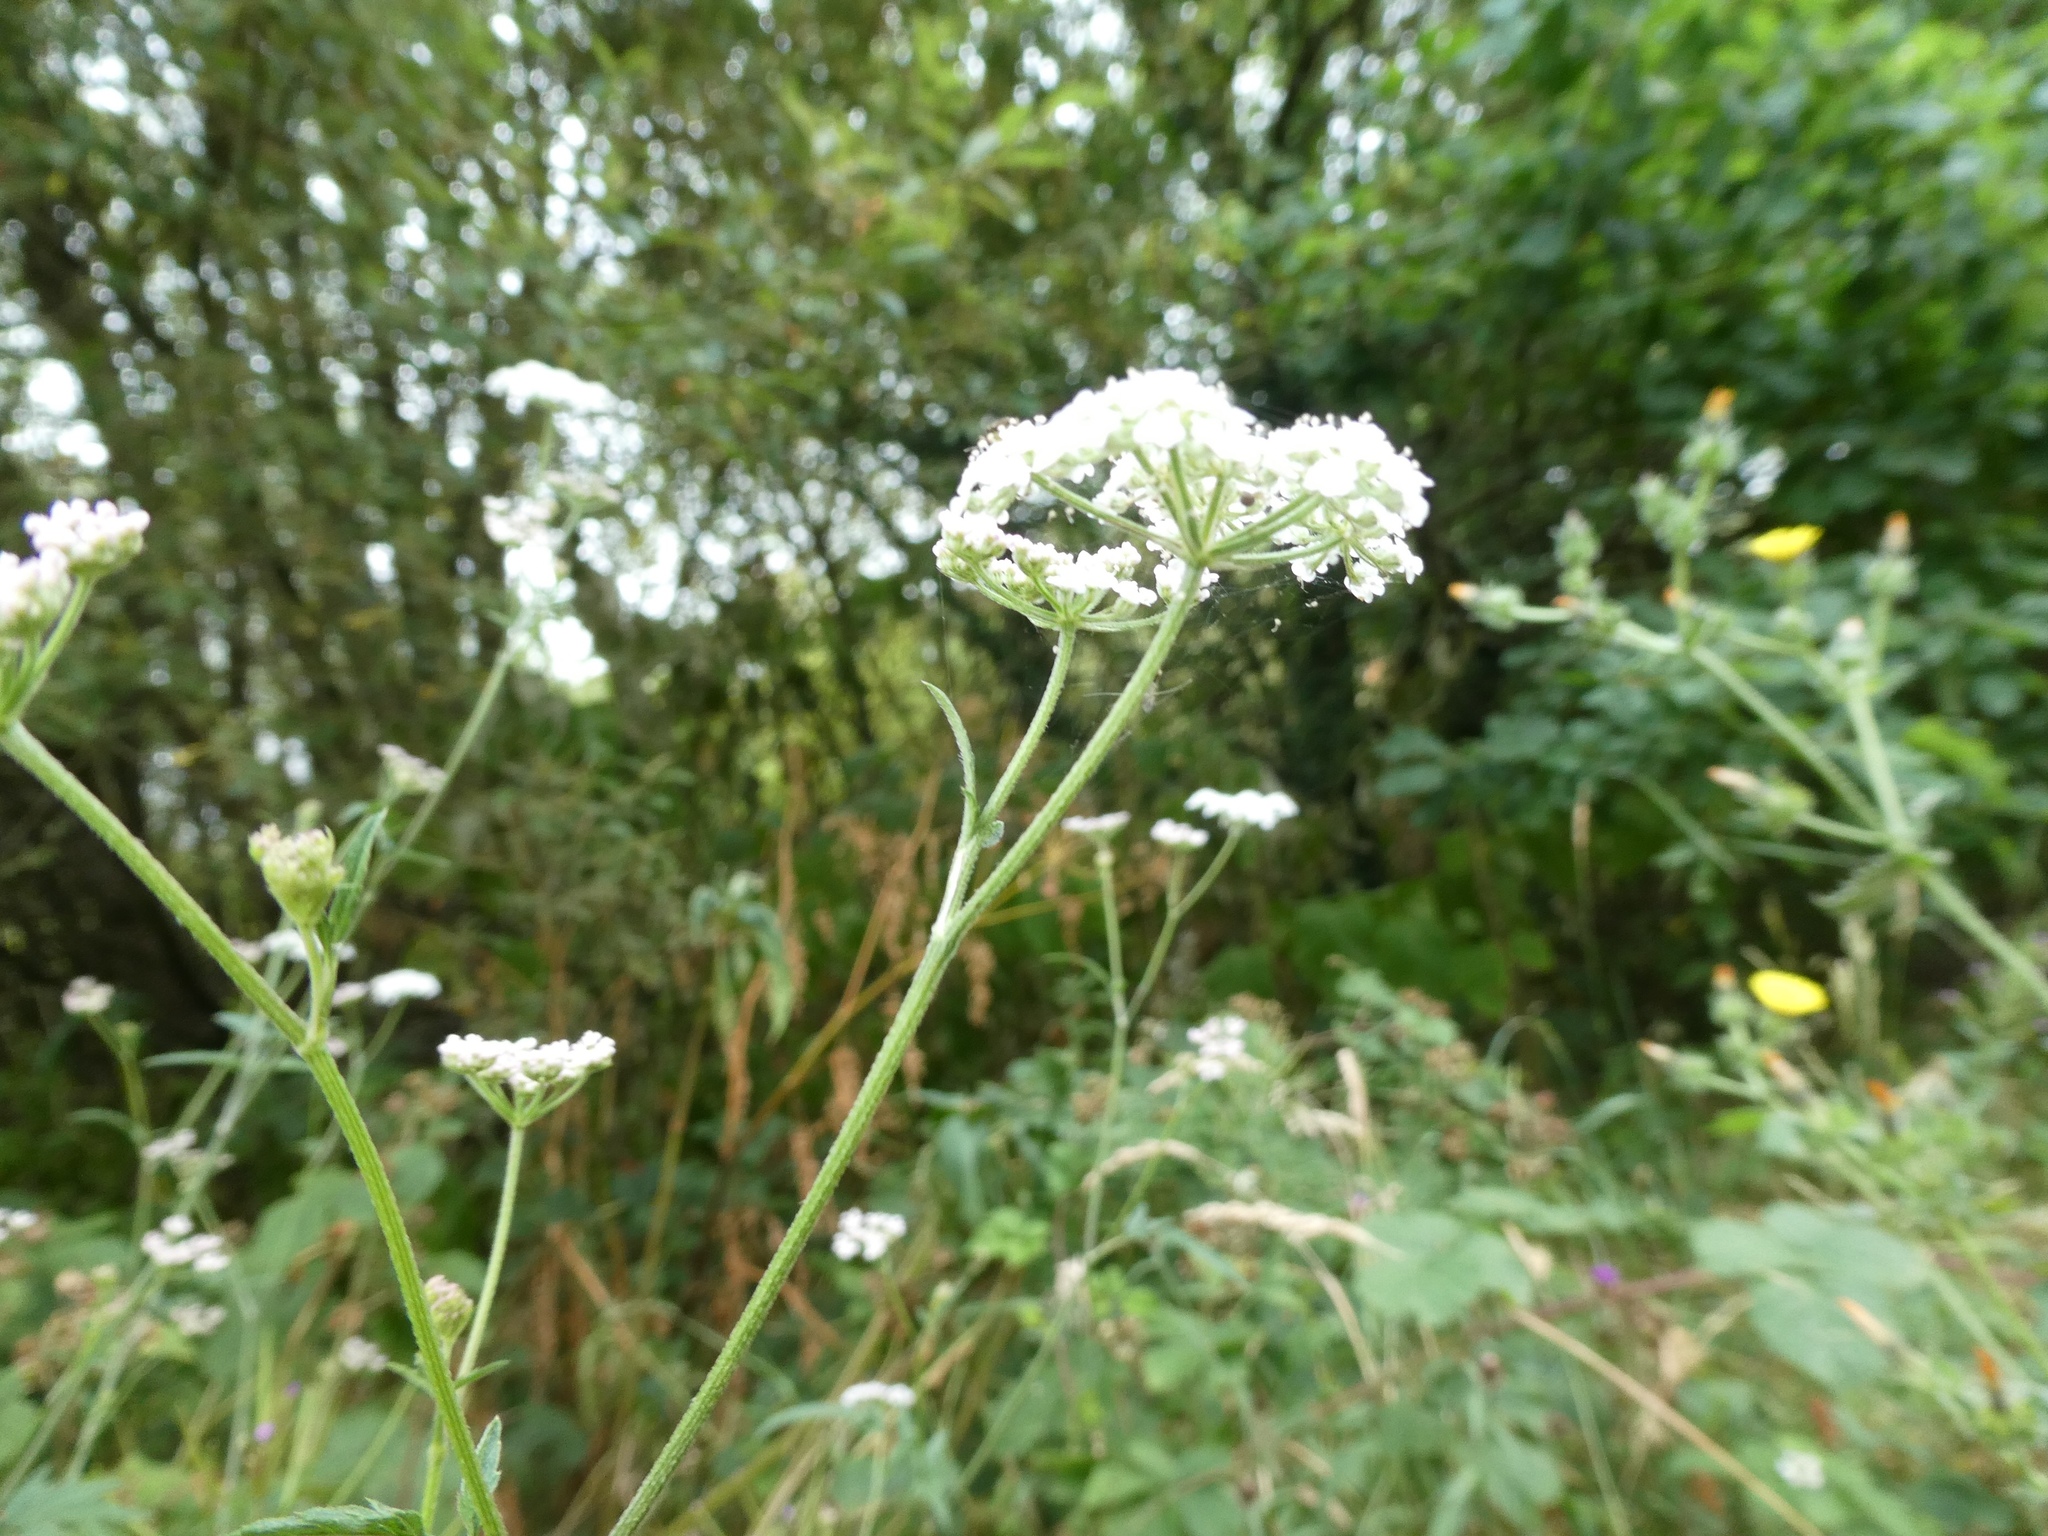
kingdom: Plantae
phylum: Tracheophyta
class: Magnoliopsida
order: Apiales
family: Apiaceae
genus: Torilis
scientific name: Torilis japonica
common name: Upright hedge-parsley
